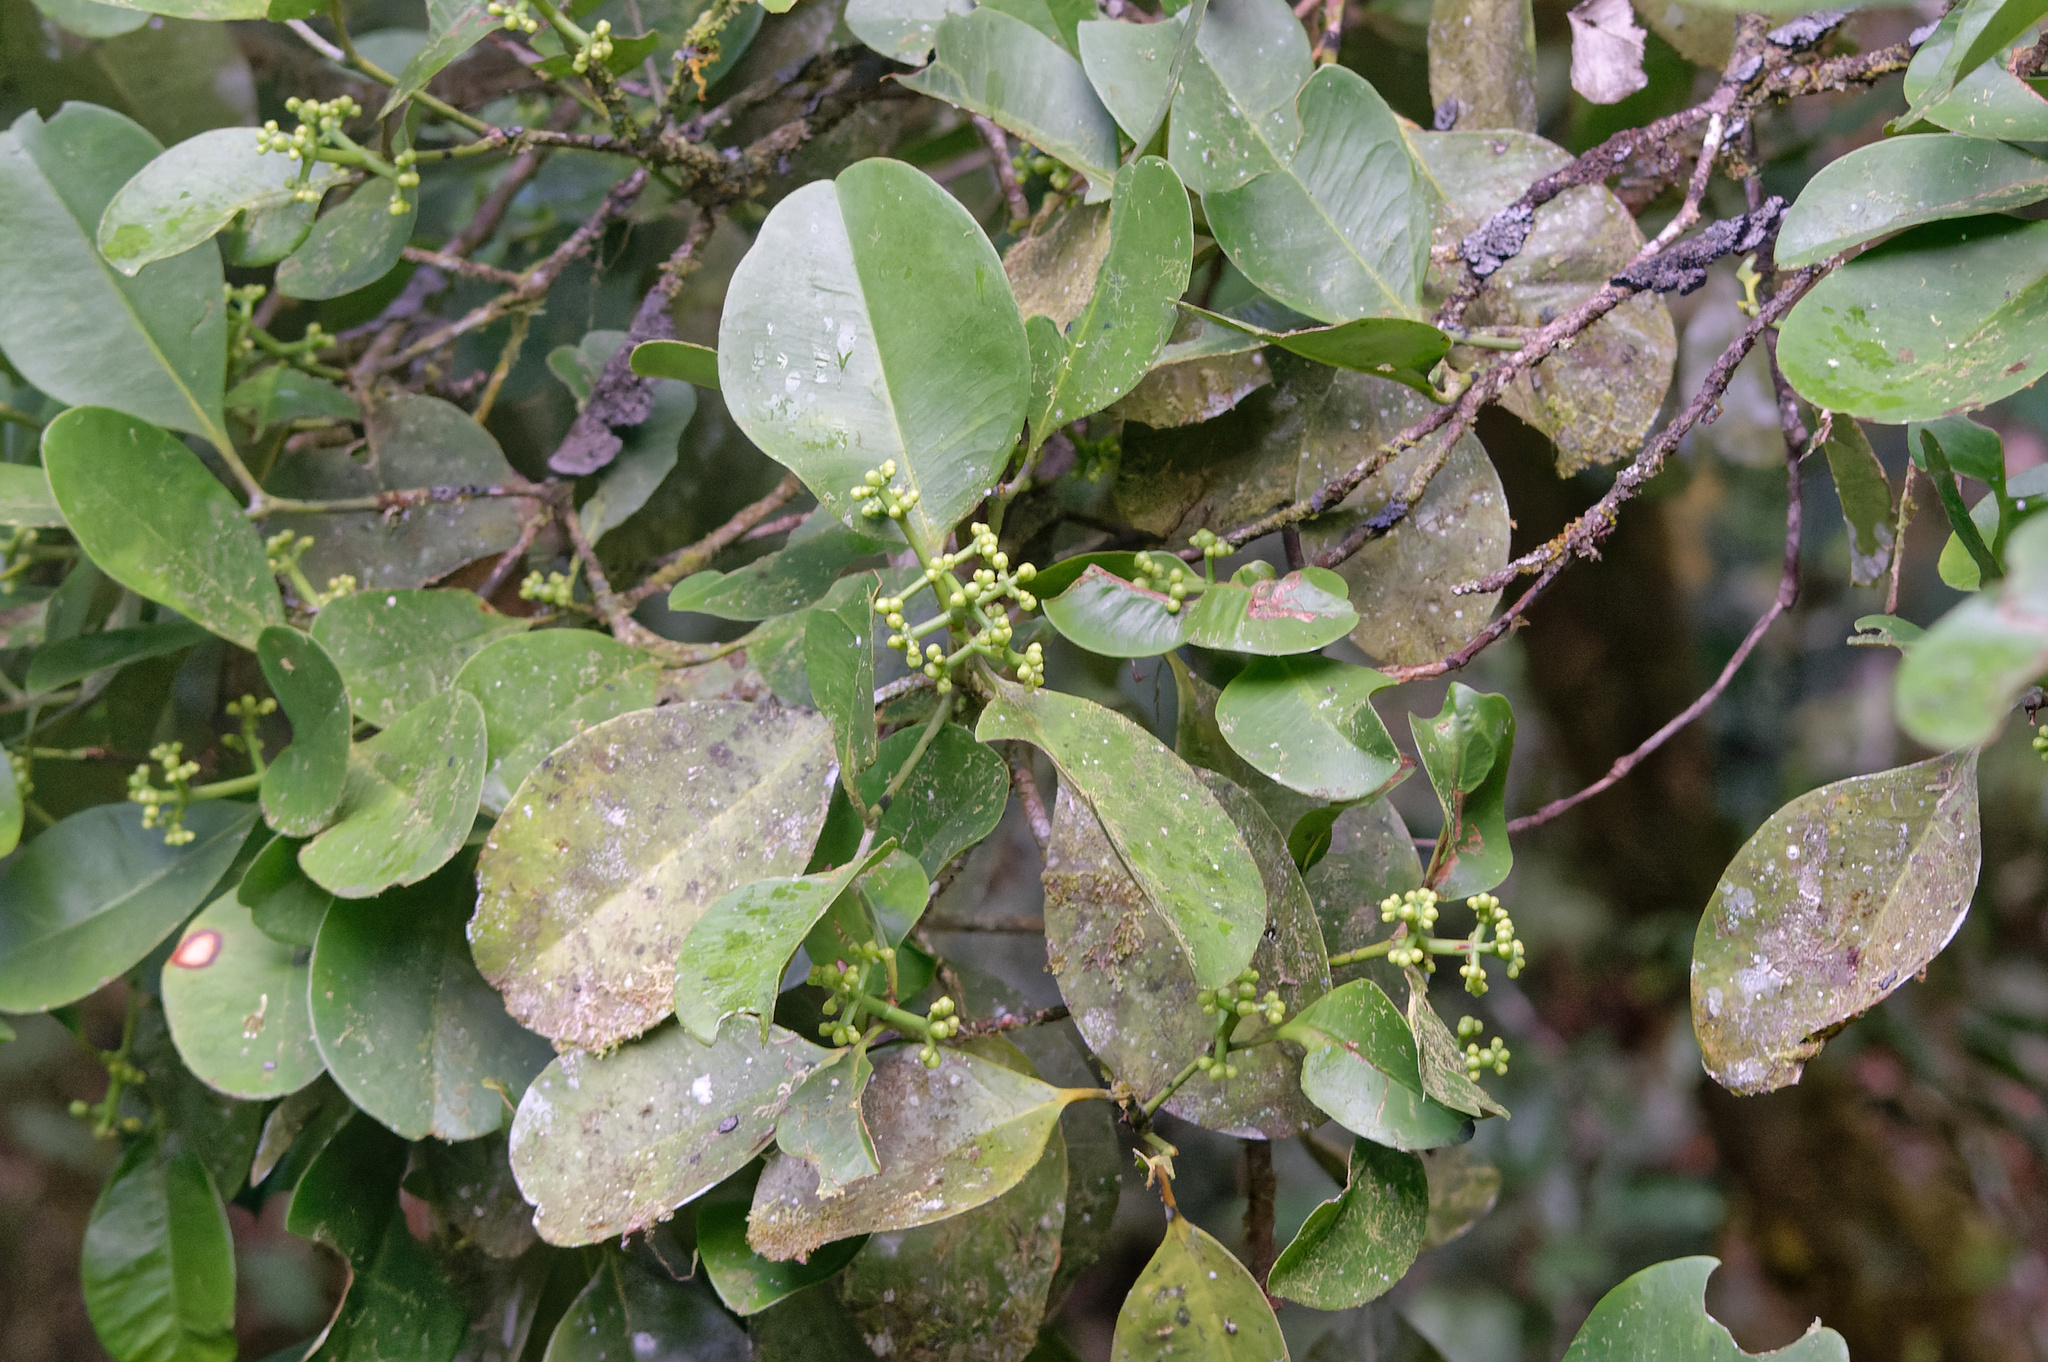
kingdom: Plantae
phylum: Tracheophyta
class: Magnoliopsida
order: Malpighiales
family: Clusiaceae
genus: Garcinia
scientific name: Garcinia warrenii
